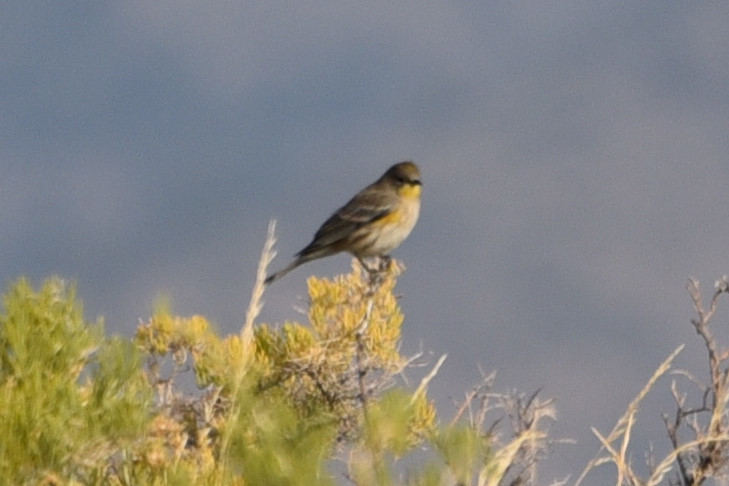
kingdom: Animalia
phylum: Chordata
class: Aves
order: Passeriformes
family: Parulidae
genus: Setophaga
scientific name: Setophaga coronata
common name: Myrtle warbler
